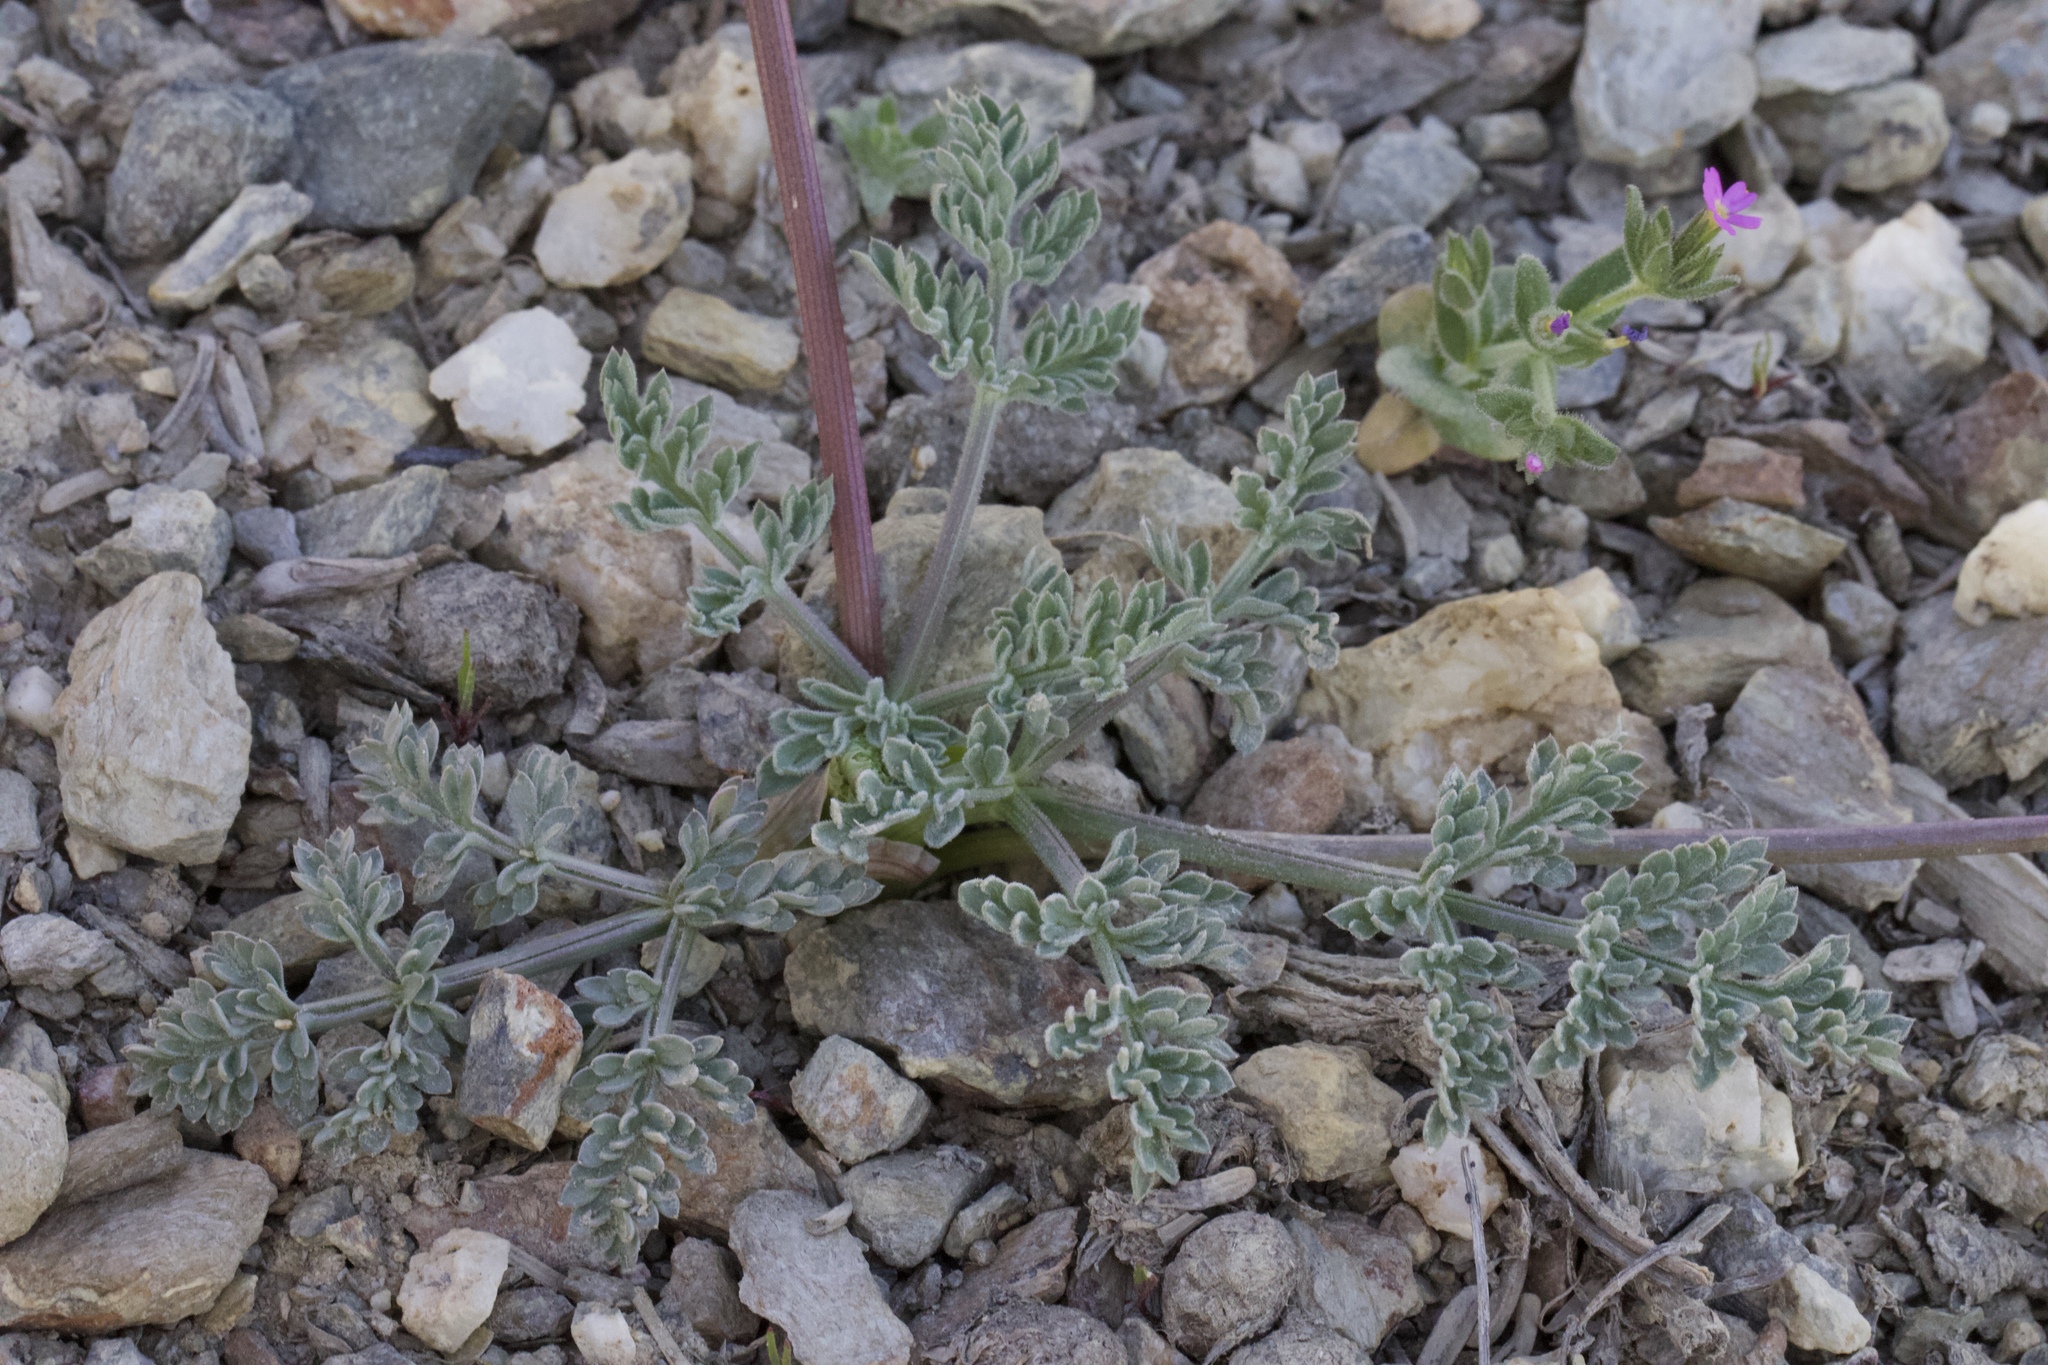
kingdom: Plantae
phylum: Tracheophyta
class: Magnoliopsida
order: Apiales
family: Apiaceae
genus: Lomatium
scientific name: Lomatium macrocarpum
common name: Big-seed biscuitroot
